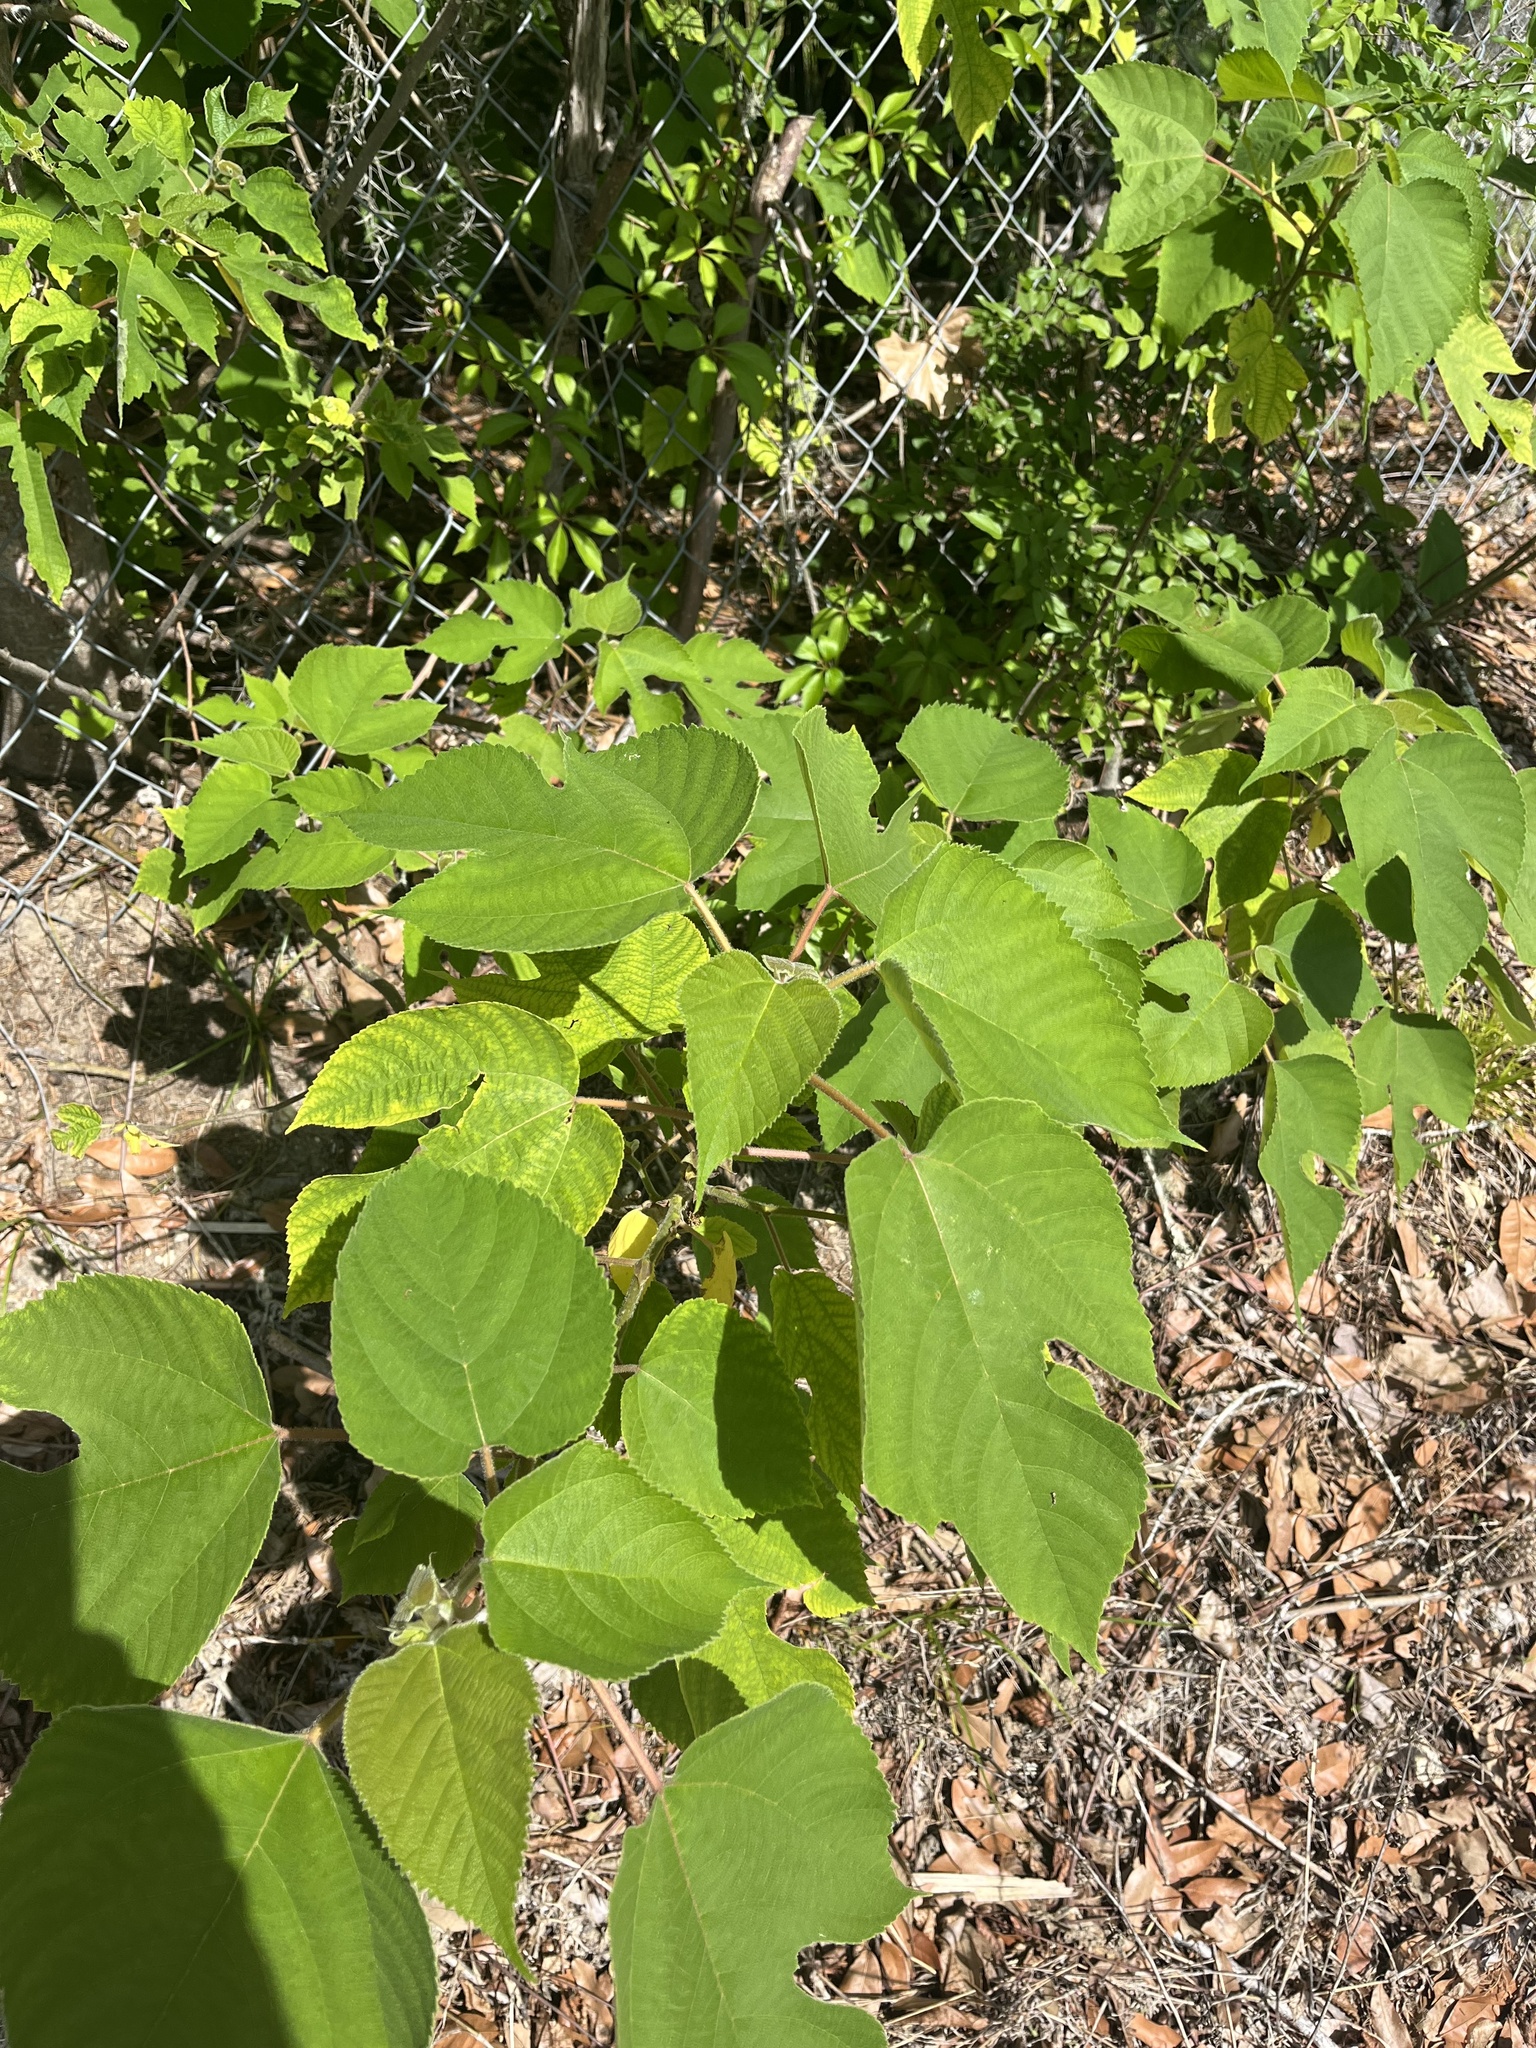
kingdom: Plantae
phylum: Tracheophyta
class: Magnoliopsida
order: Rosales
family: Moraceae
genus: Broussonetia
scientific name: Broussonetia papyrifera
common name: Paper mulberry
